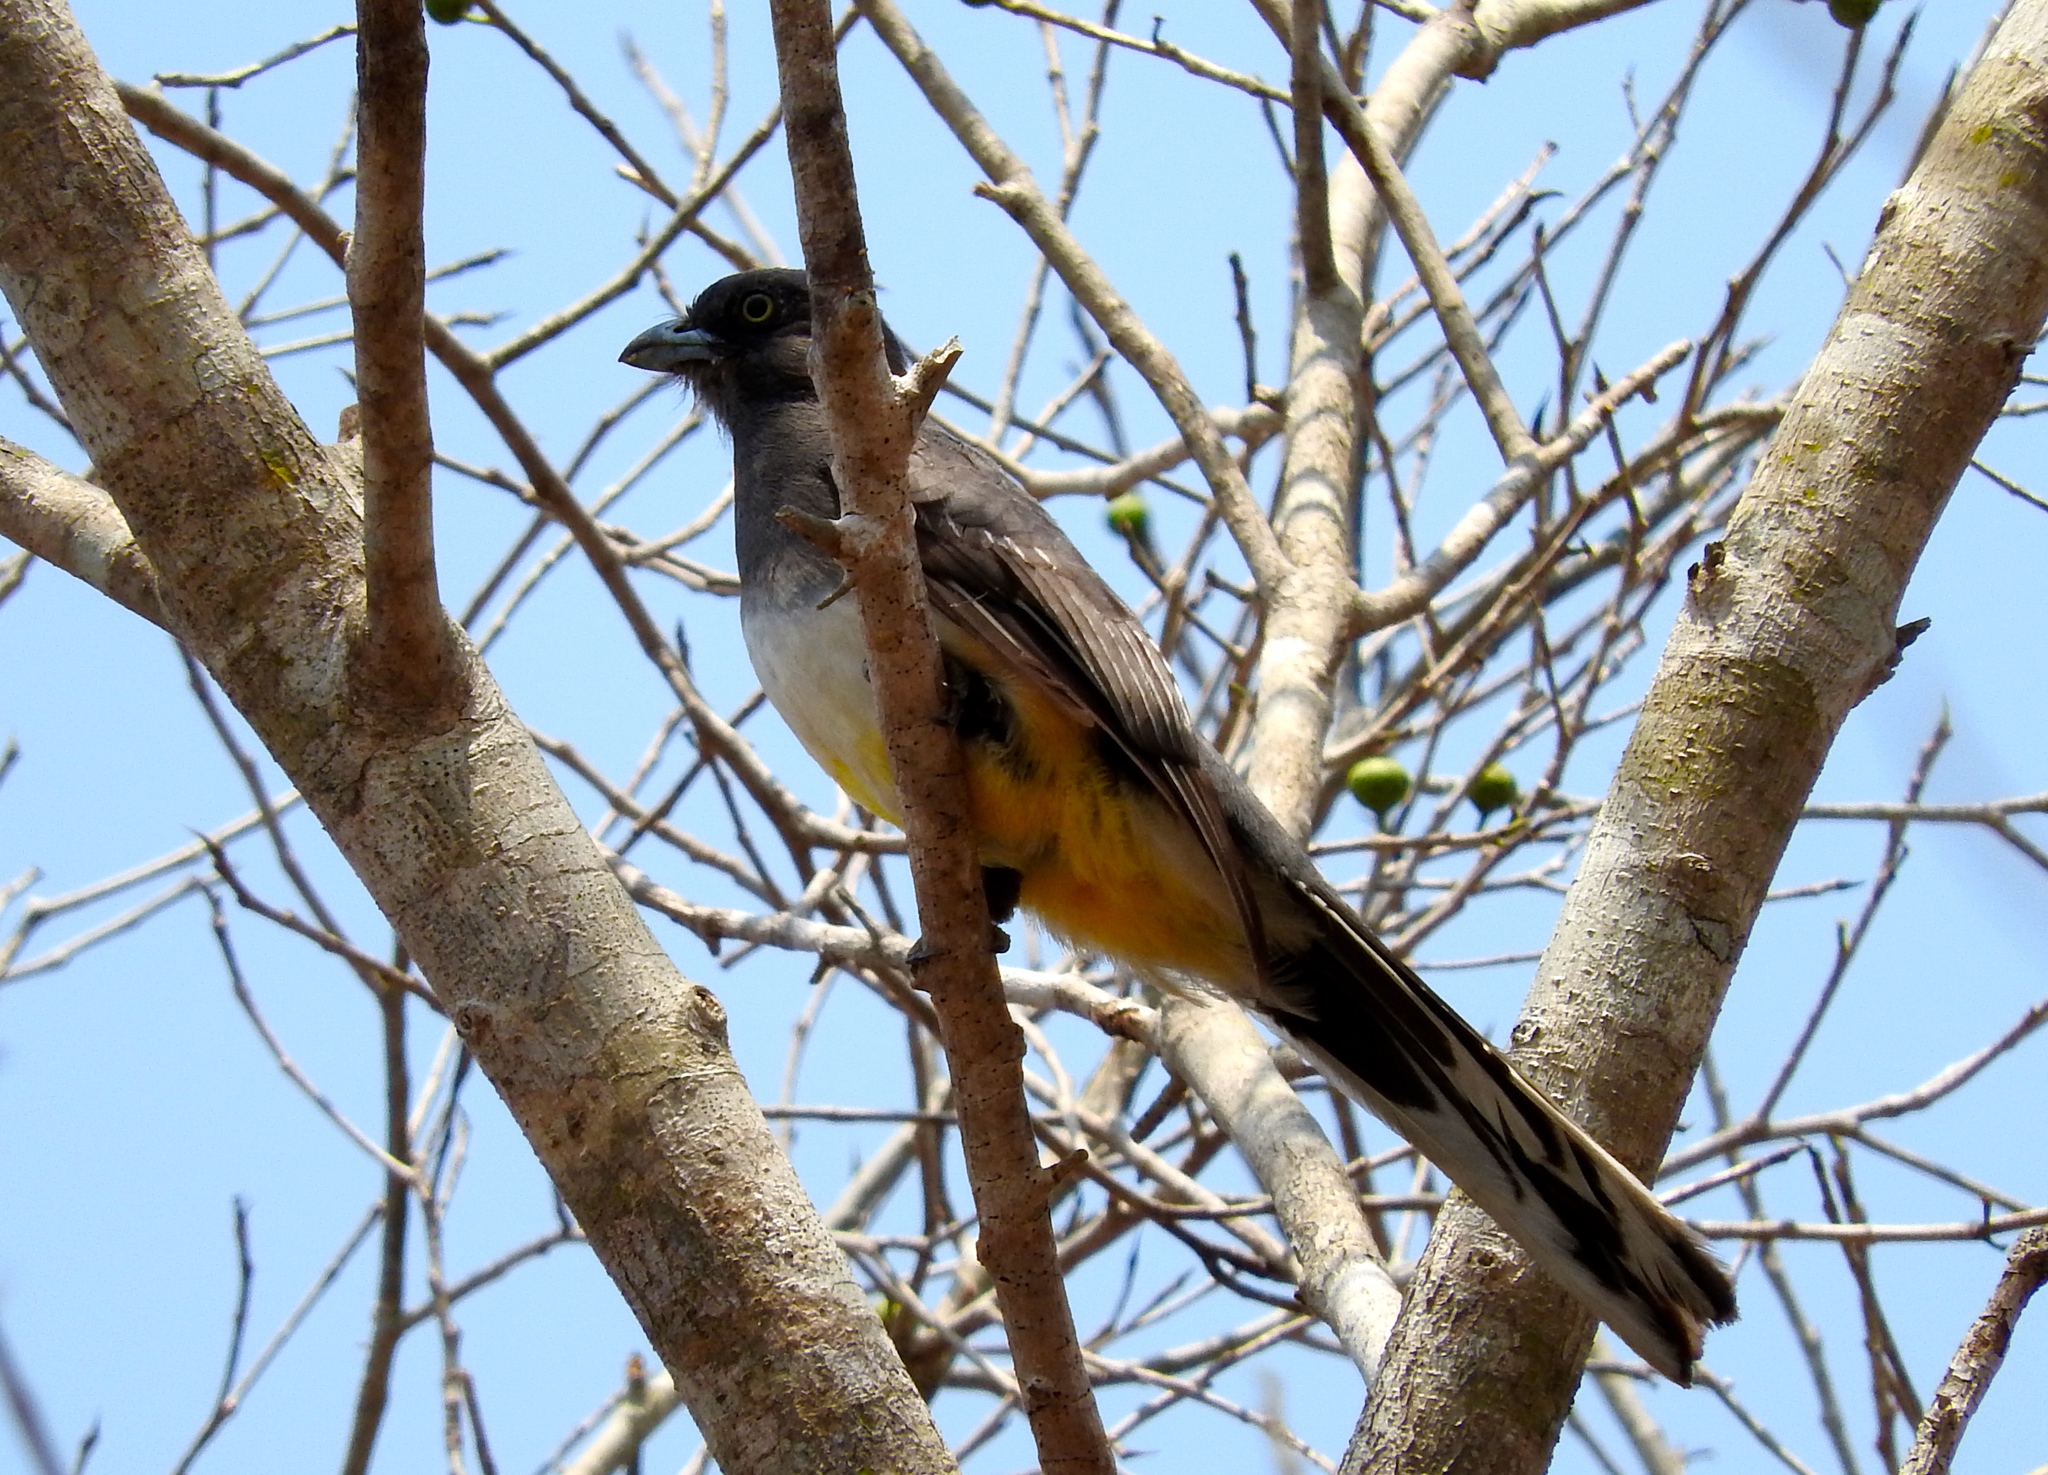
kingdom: Animalia
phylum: Chordata
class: Aves
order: Trogoniformes
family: Trogonidae
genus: Trogon
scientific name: Trogon citreolus
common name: Citreoline trogon
